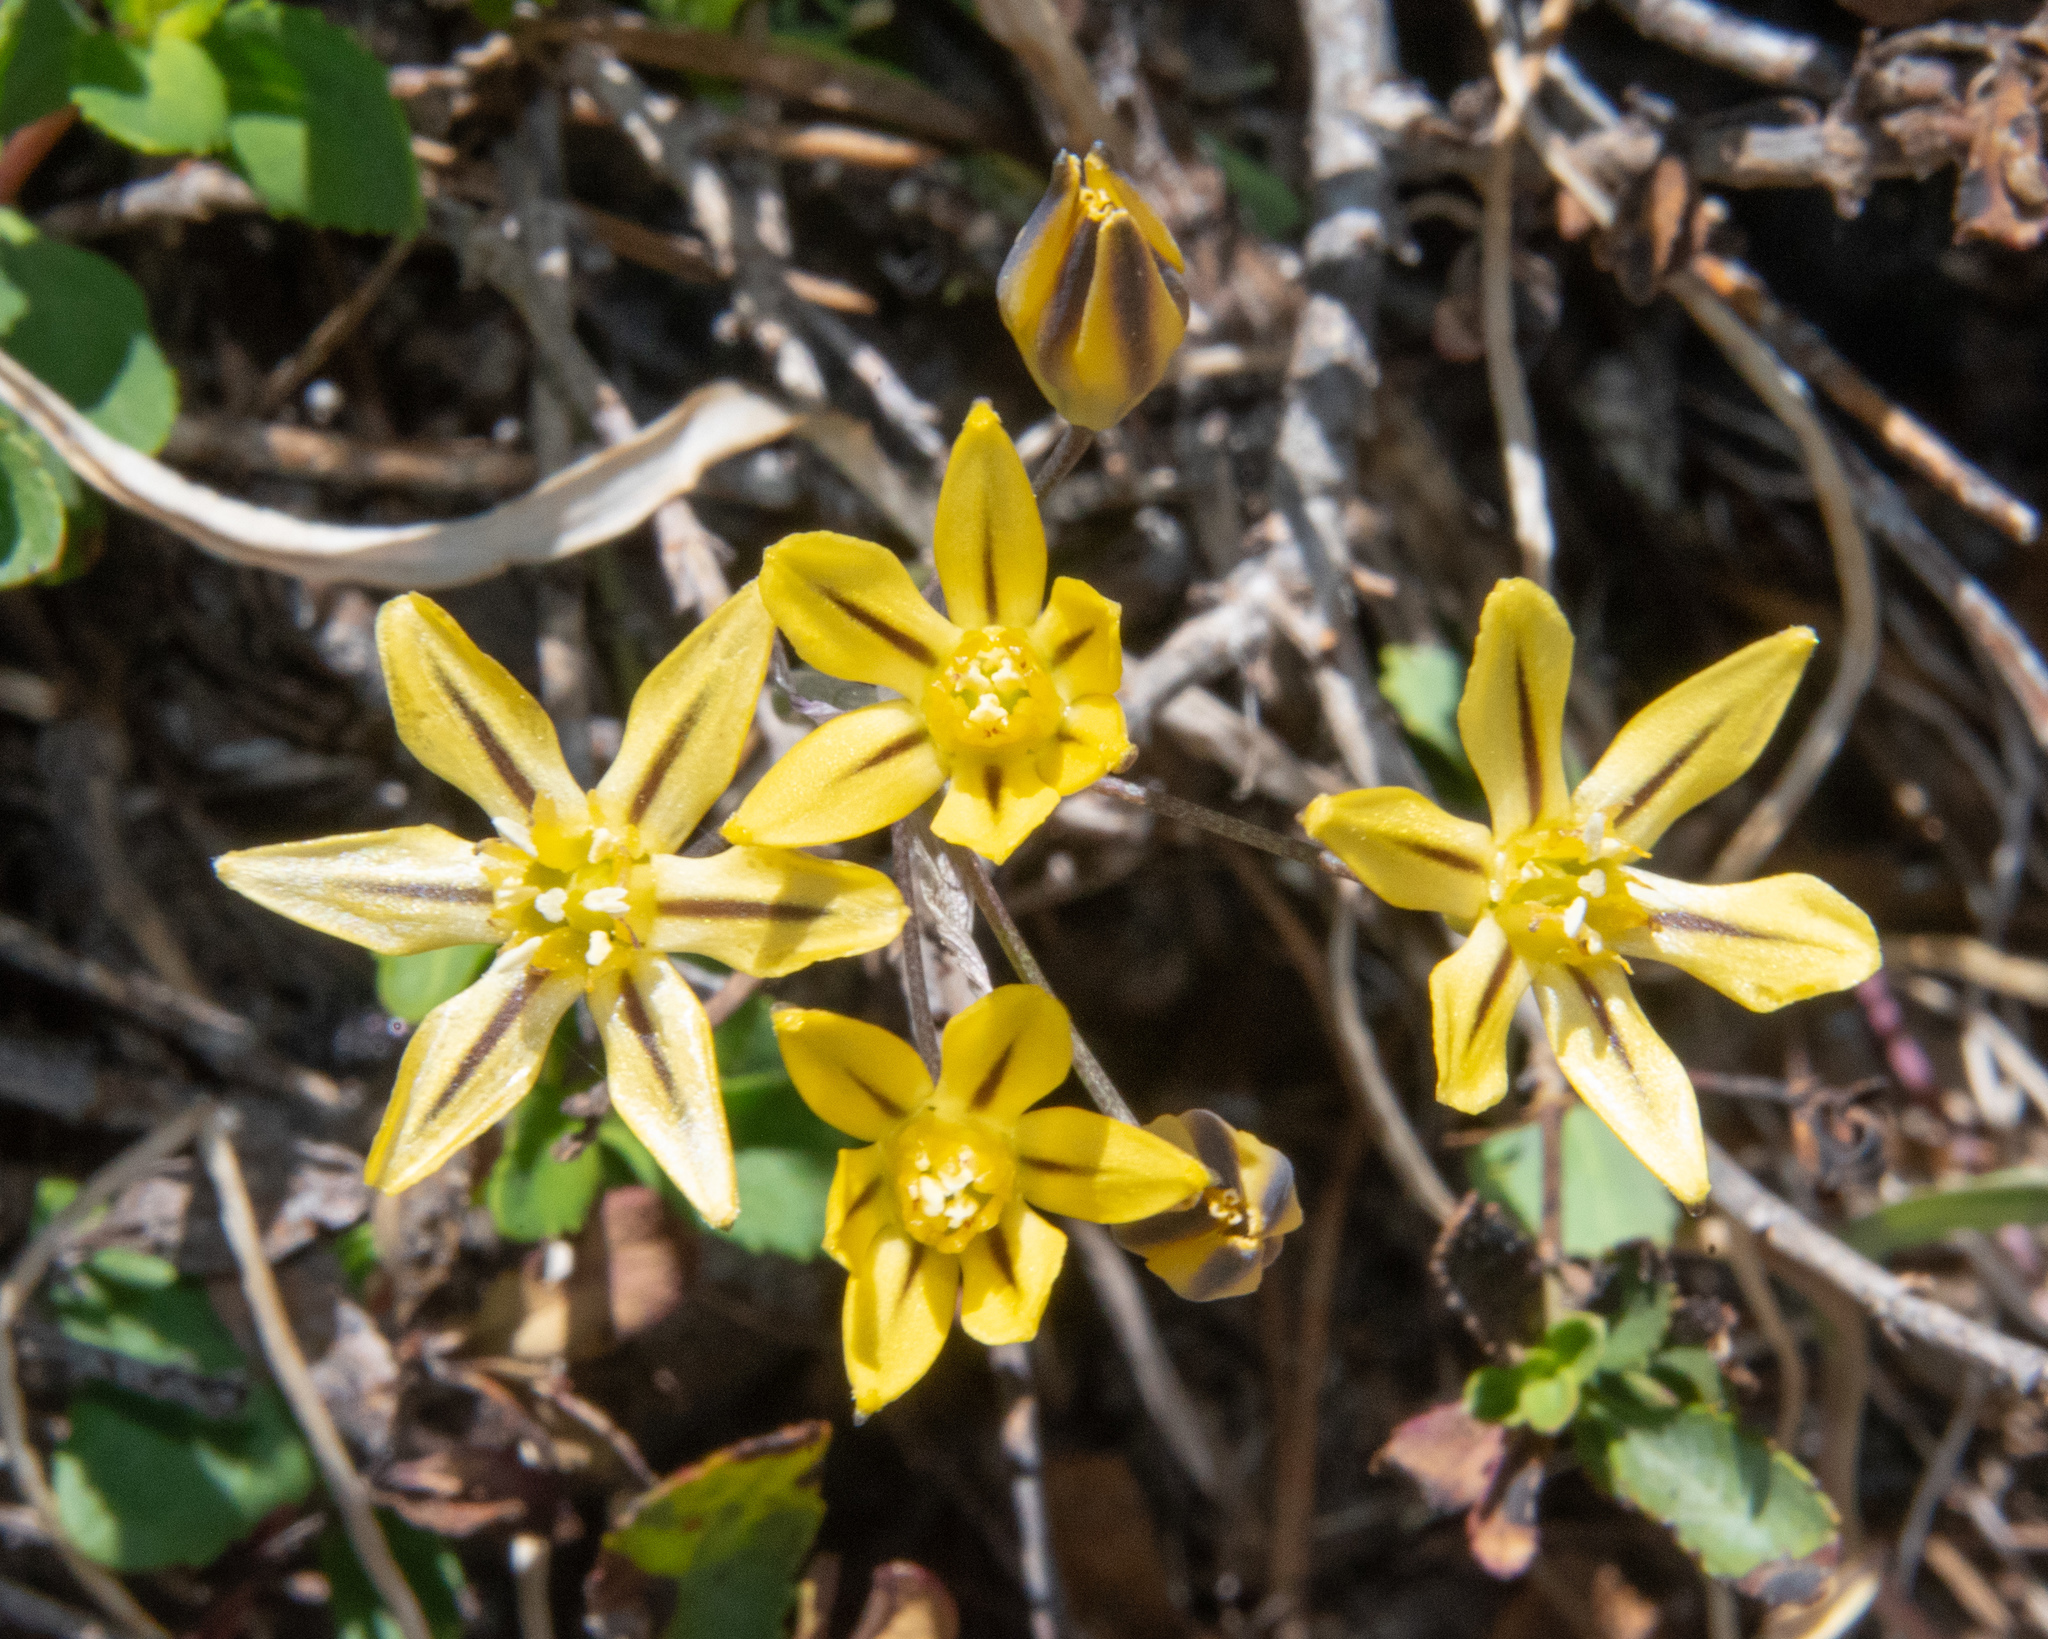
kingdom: Plantae
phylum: Tracheophyta
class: Liliopsida
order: Asparagales
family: Asparagaceae
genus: Triteleia
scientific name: Triteleia ixioides
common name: Yellow-brodiaea
